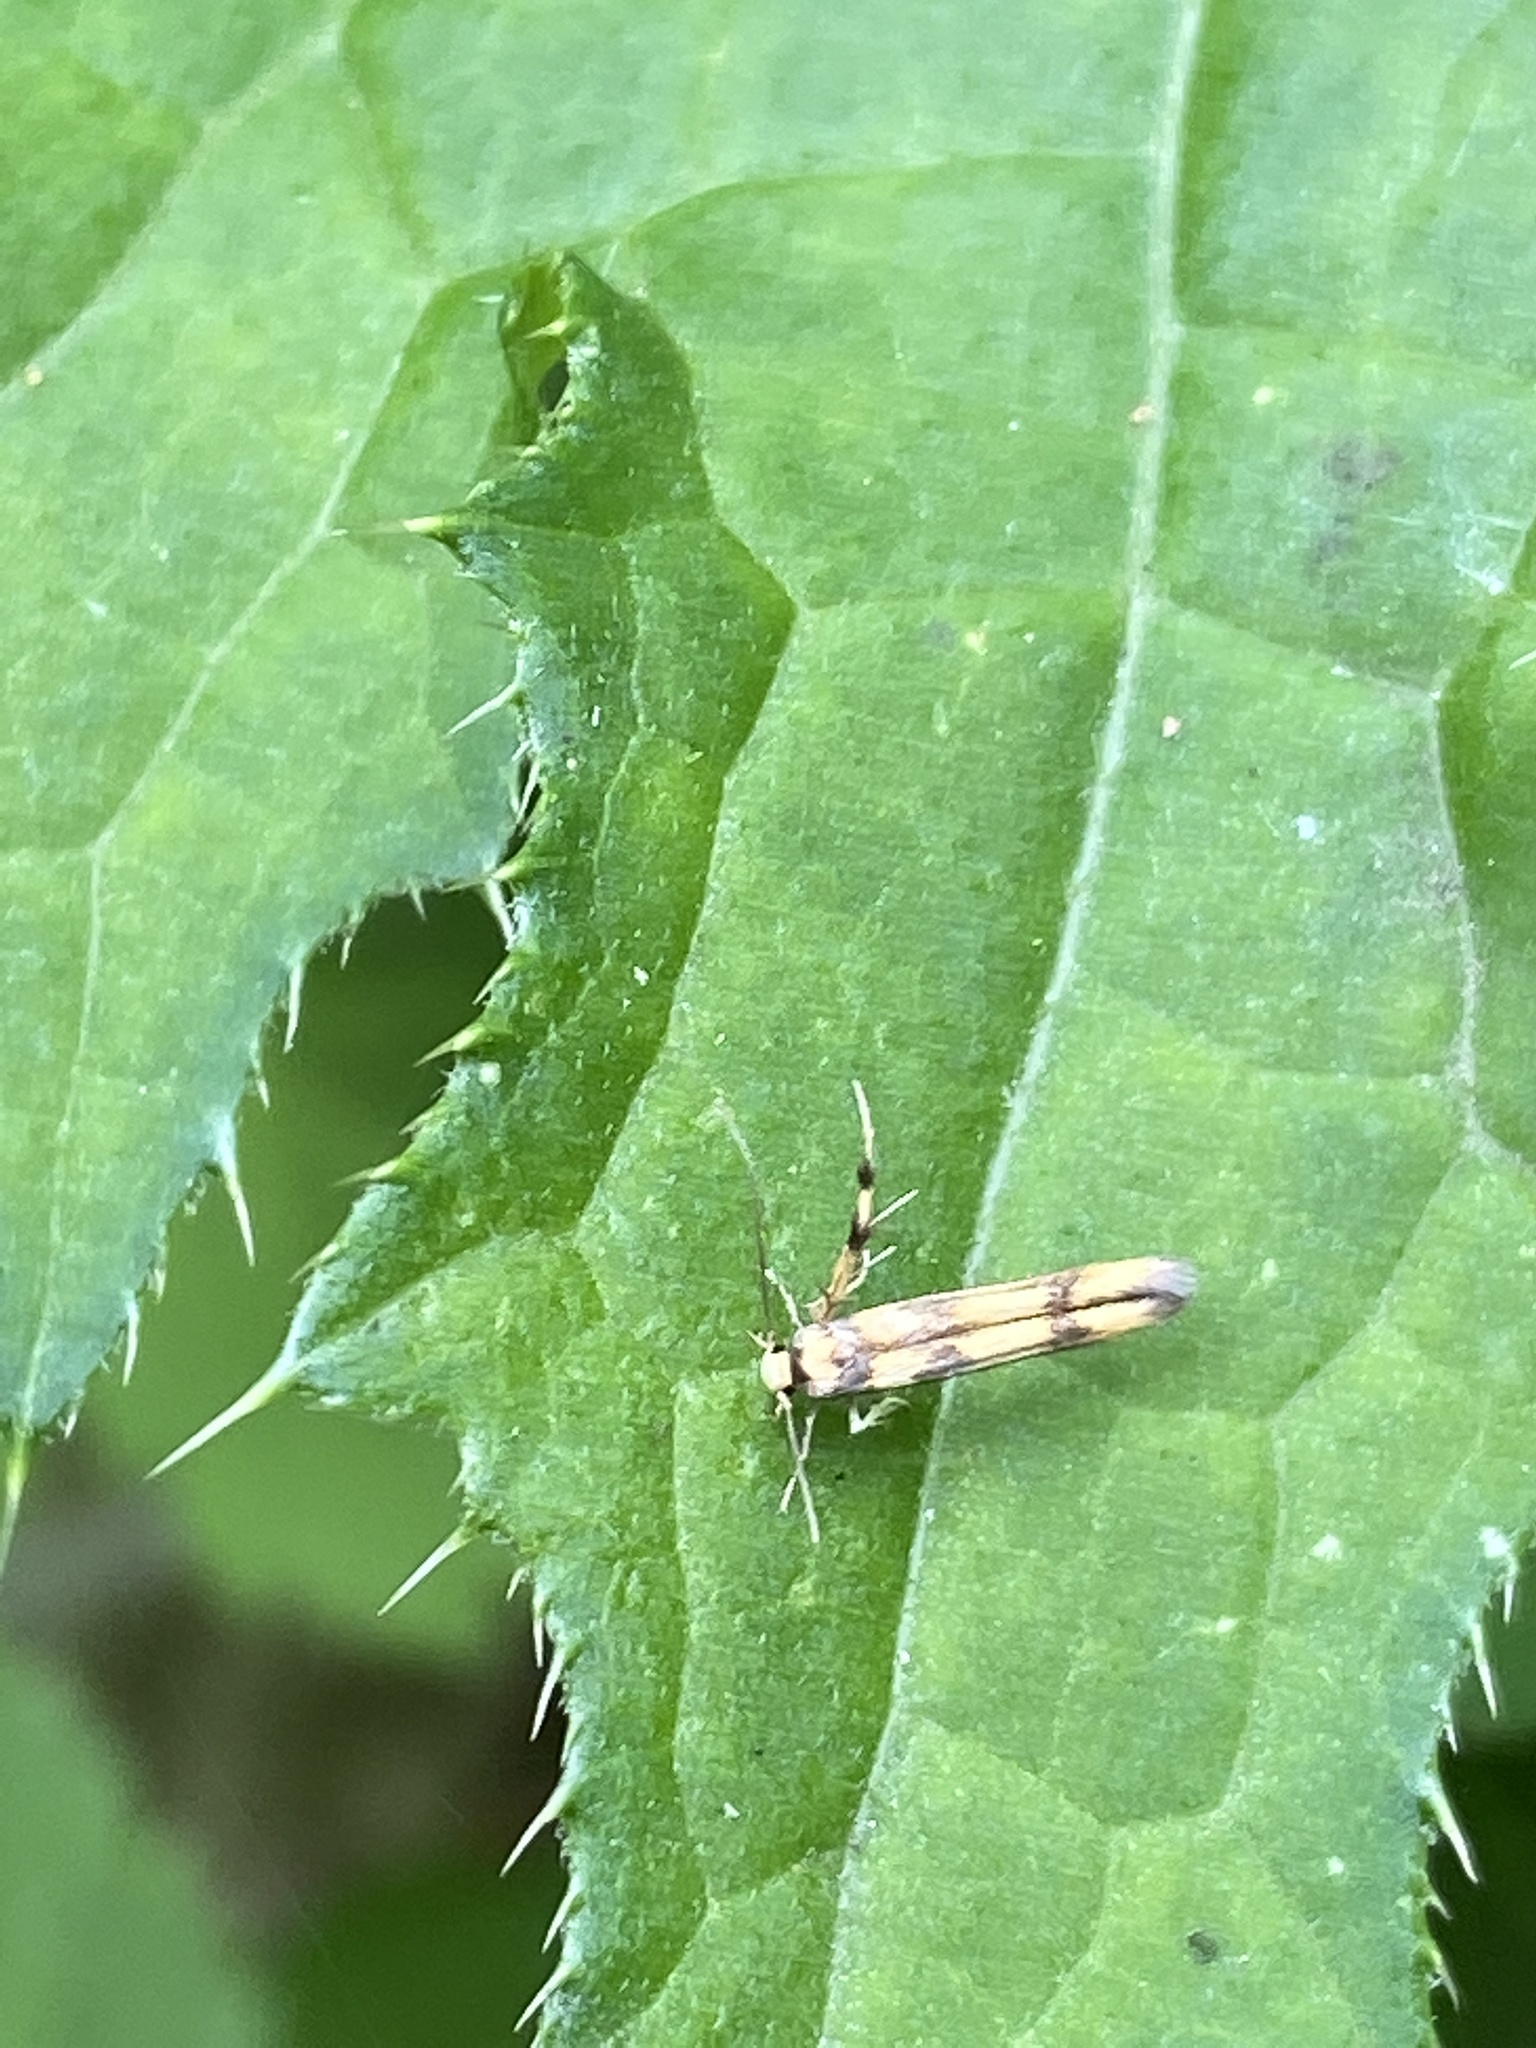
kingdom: Animalia
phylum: Arthropoda
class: Insecta
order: Lepidoptera
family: Stathmopodidae
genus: Stathmopoda
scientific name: Stathmopoda pedella
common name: Alder signal
